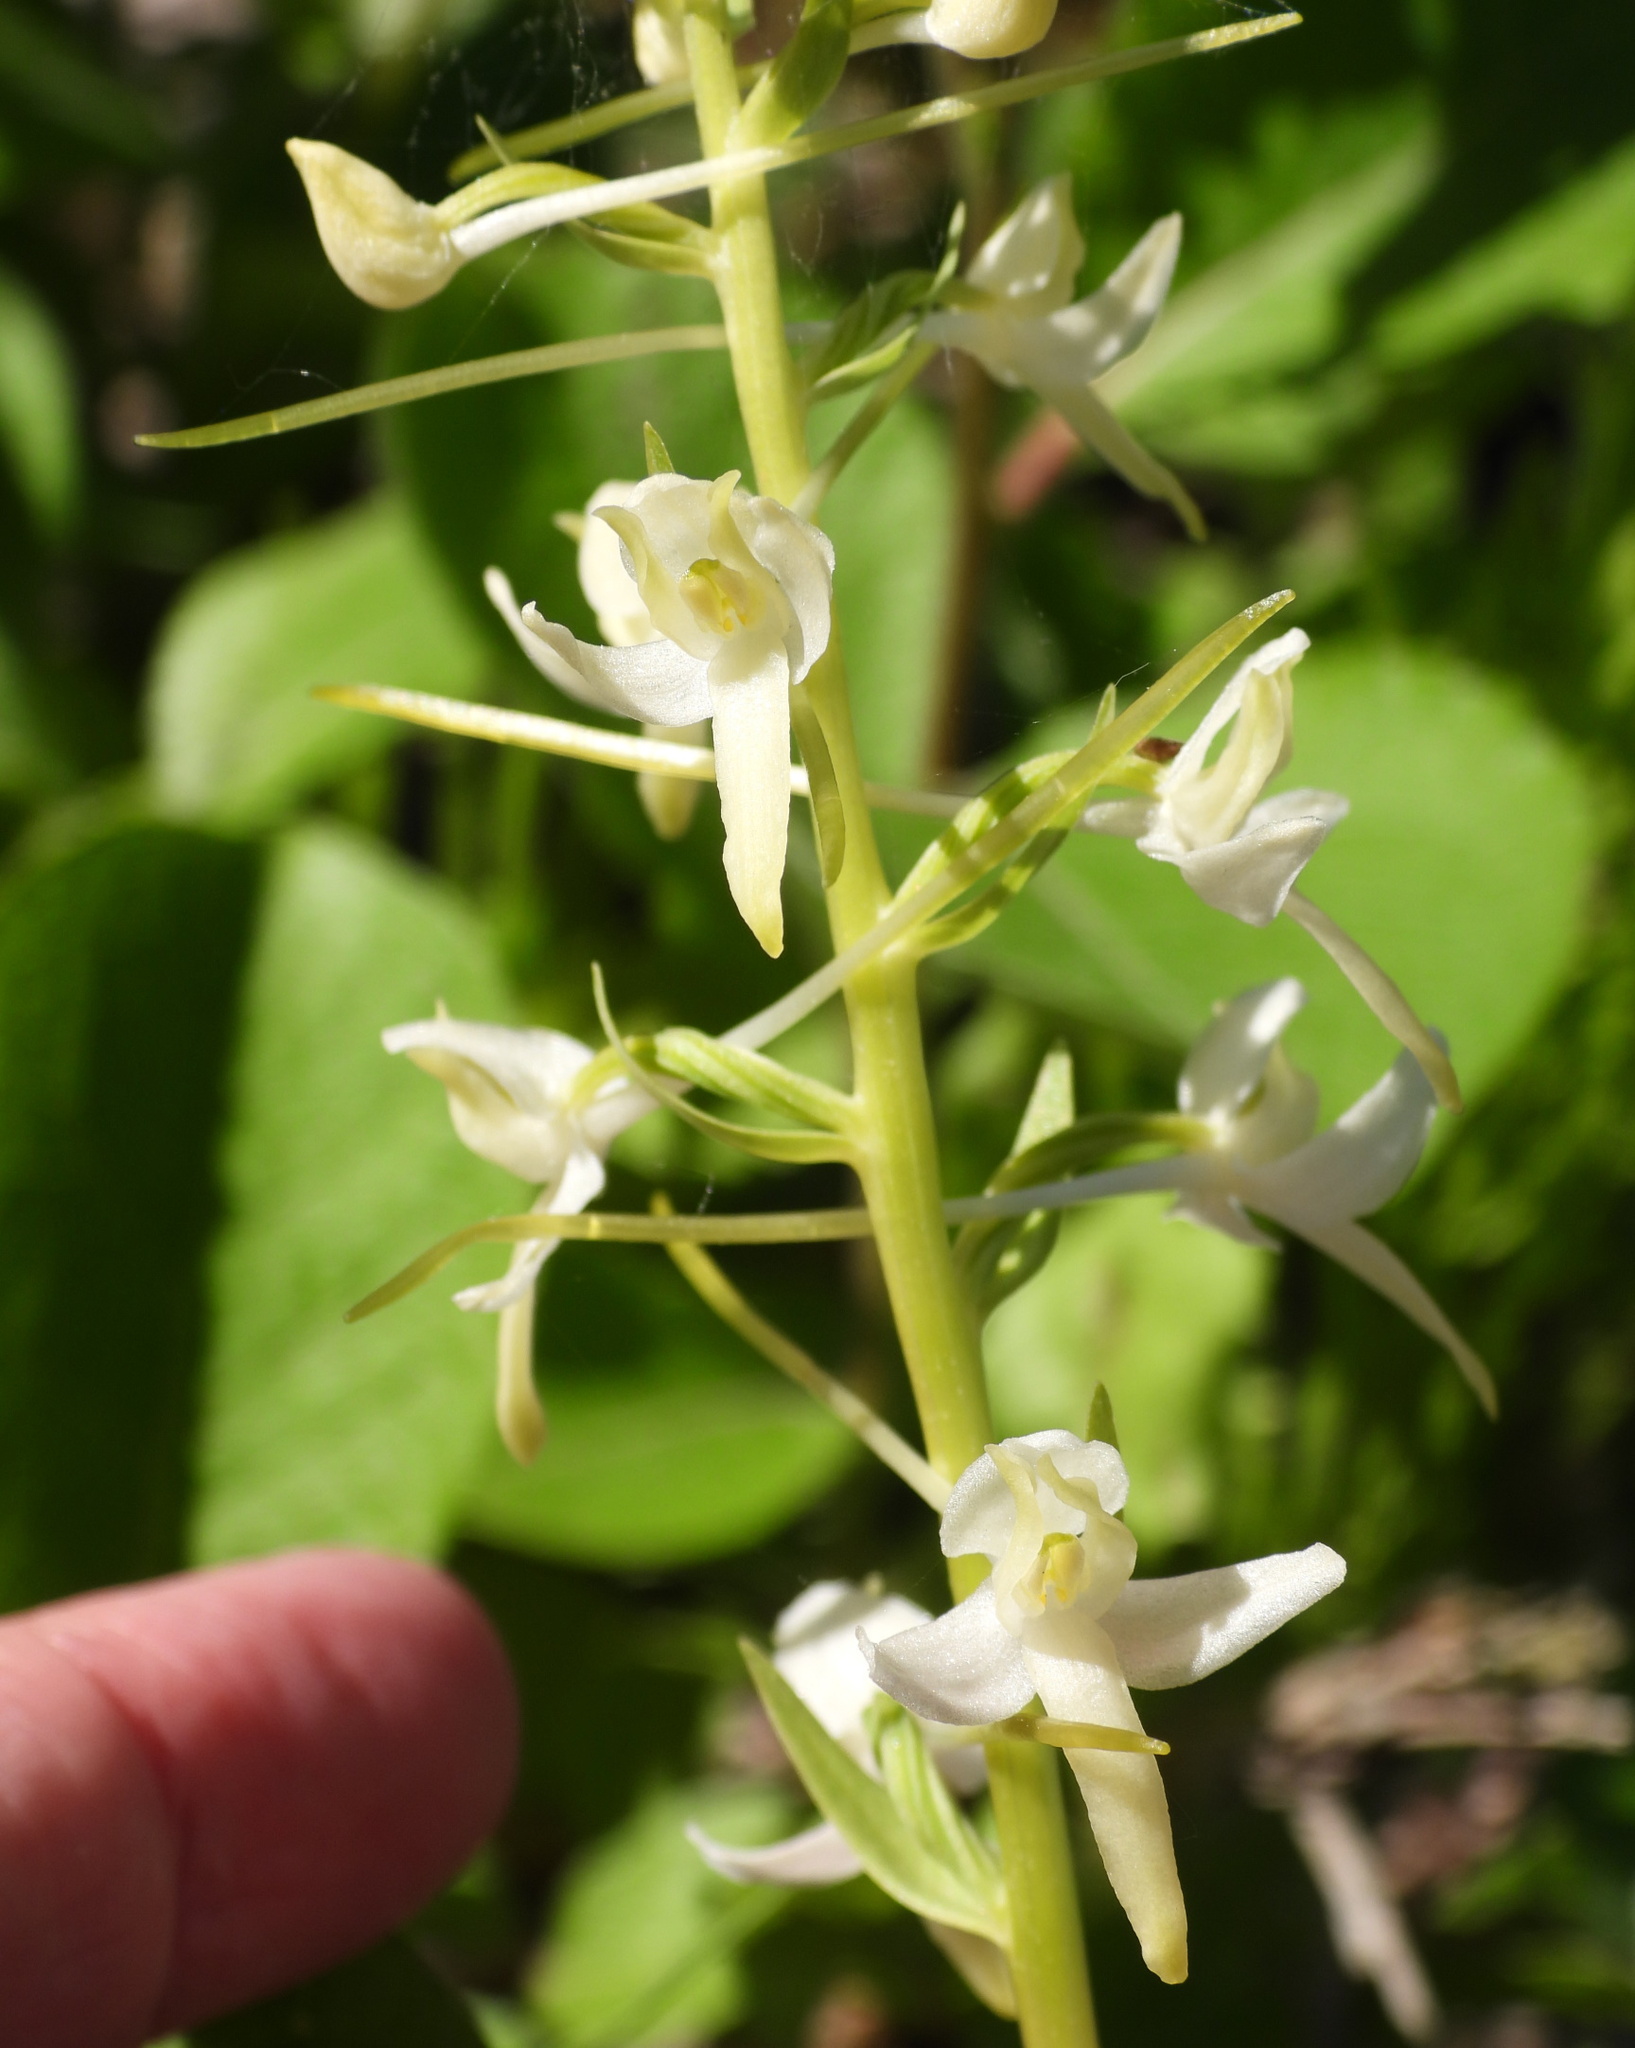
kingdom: Plantae
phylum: Tracheophyta
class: Liliopsida
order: Asparagales
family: Orchidaceae
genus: Platanthera
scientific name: Platanthera bifolia
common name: Lesser butterfly-orchid
